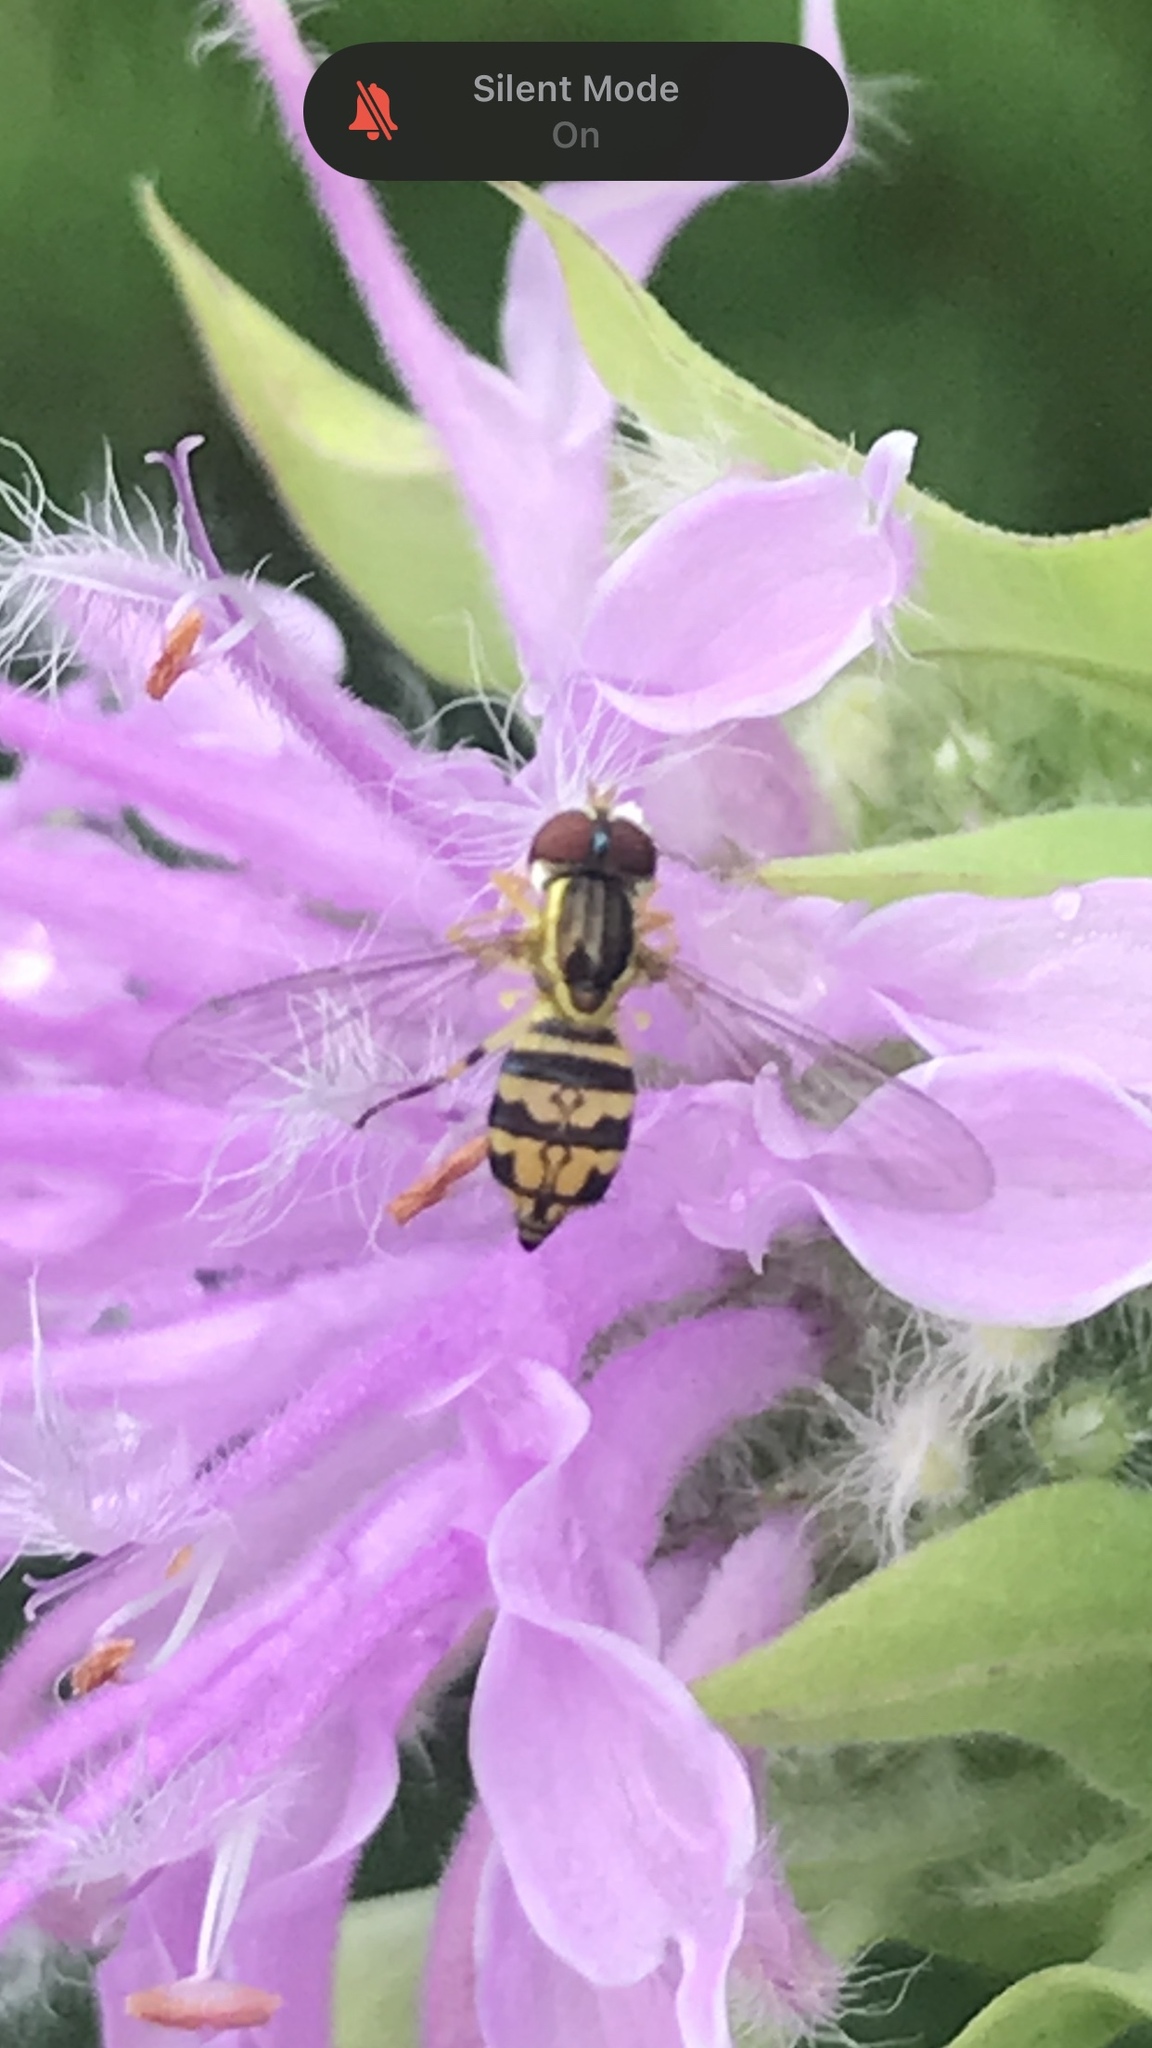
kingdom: Animalia
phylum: Arthropoda
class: Insecta
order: Diptera
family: Syrphidae
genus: Toxomerus
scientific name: Toxomerus geminatus
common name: Eastern calligrapher
